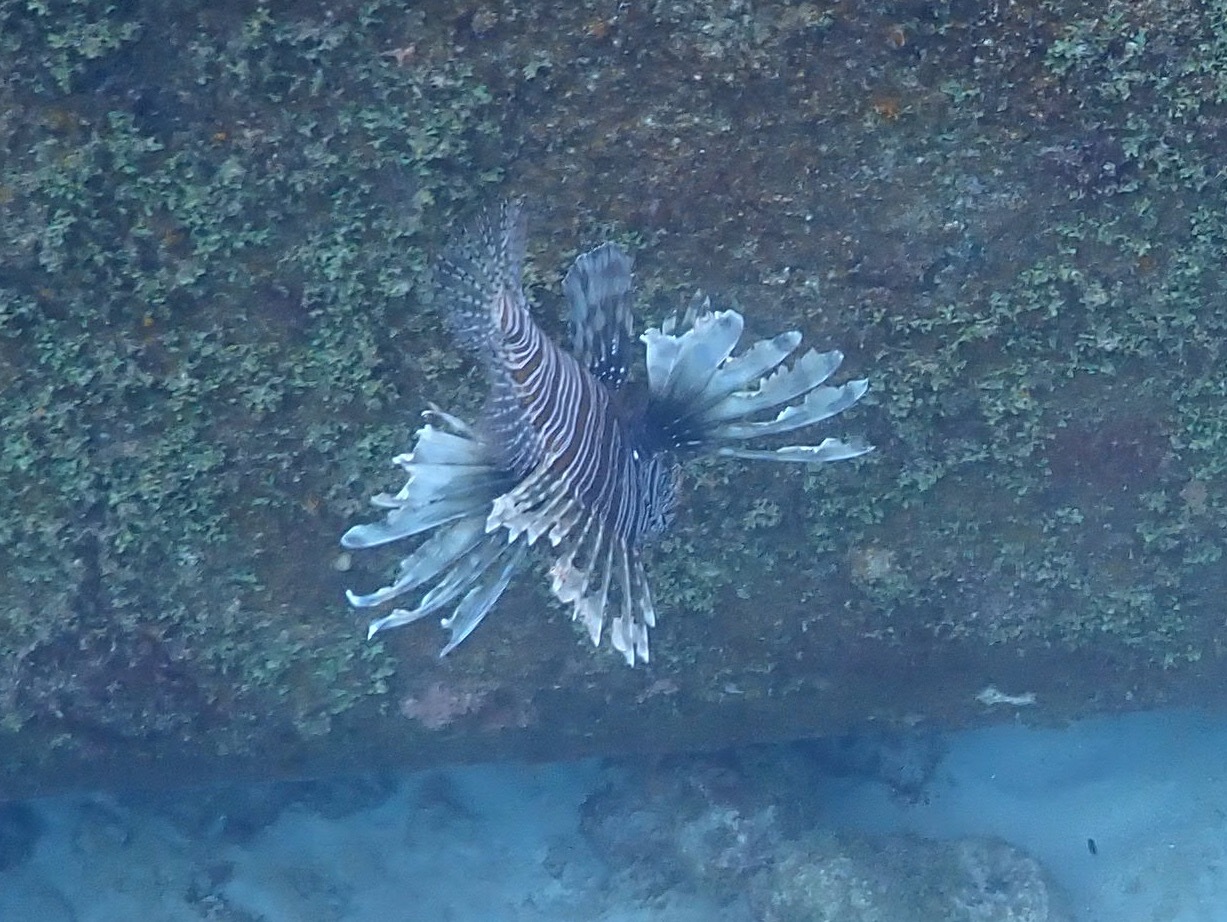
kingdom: Animalia
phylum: Chordata
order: Scorpaeniformes
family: Scorpaenidae
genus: Pterois
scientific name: Pterois volitans
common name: Lionfish
